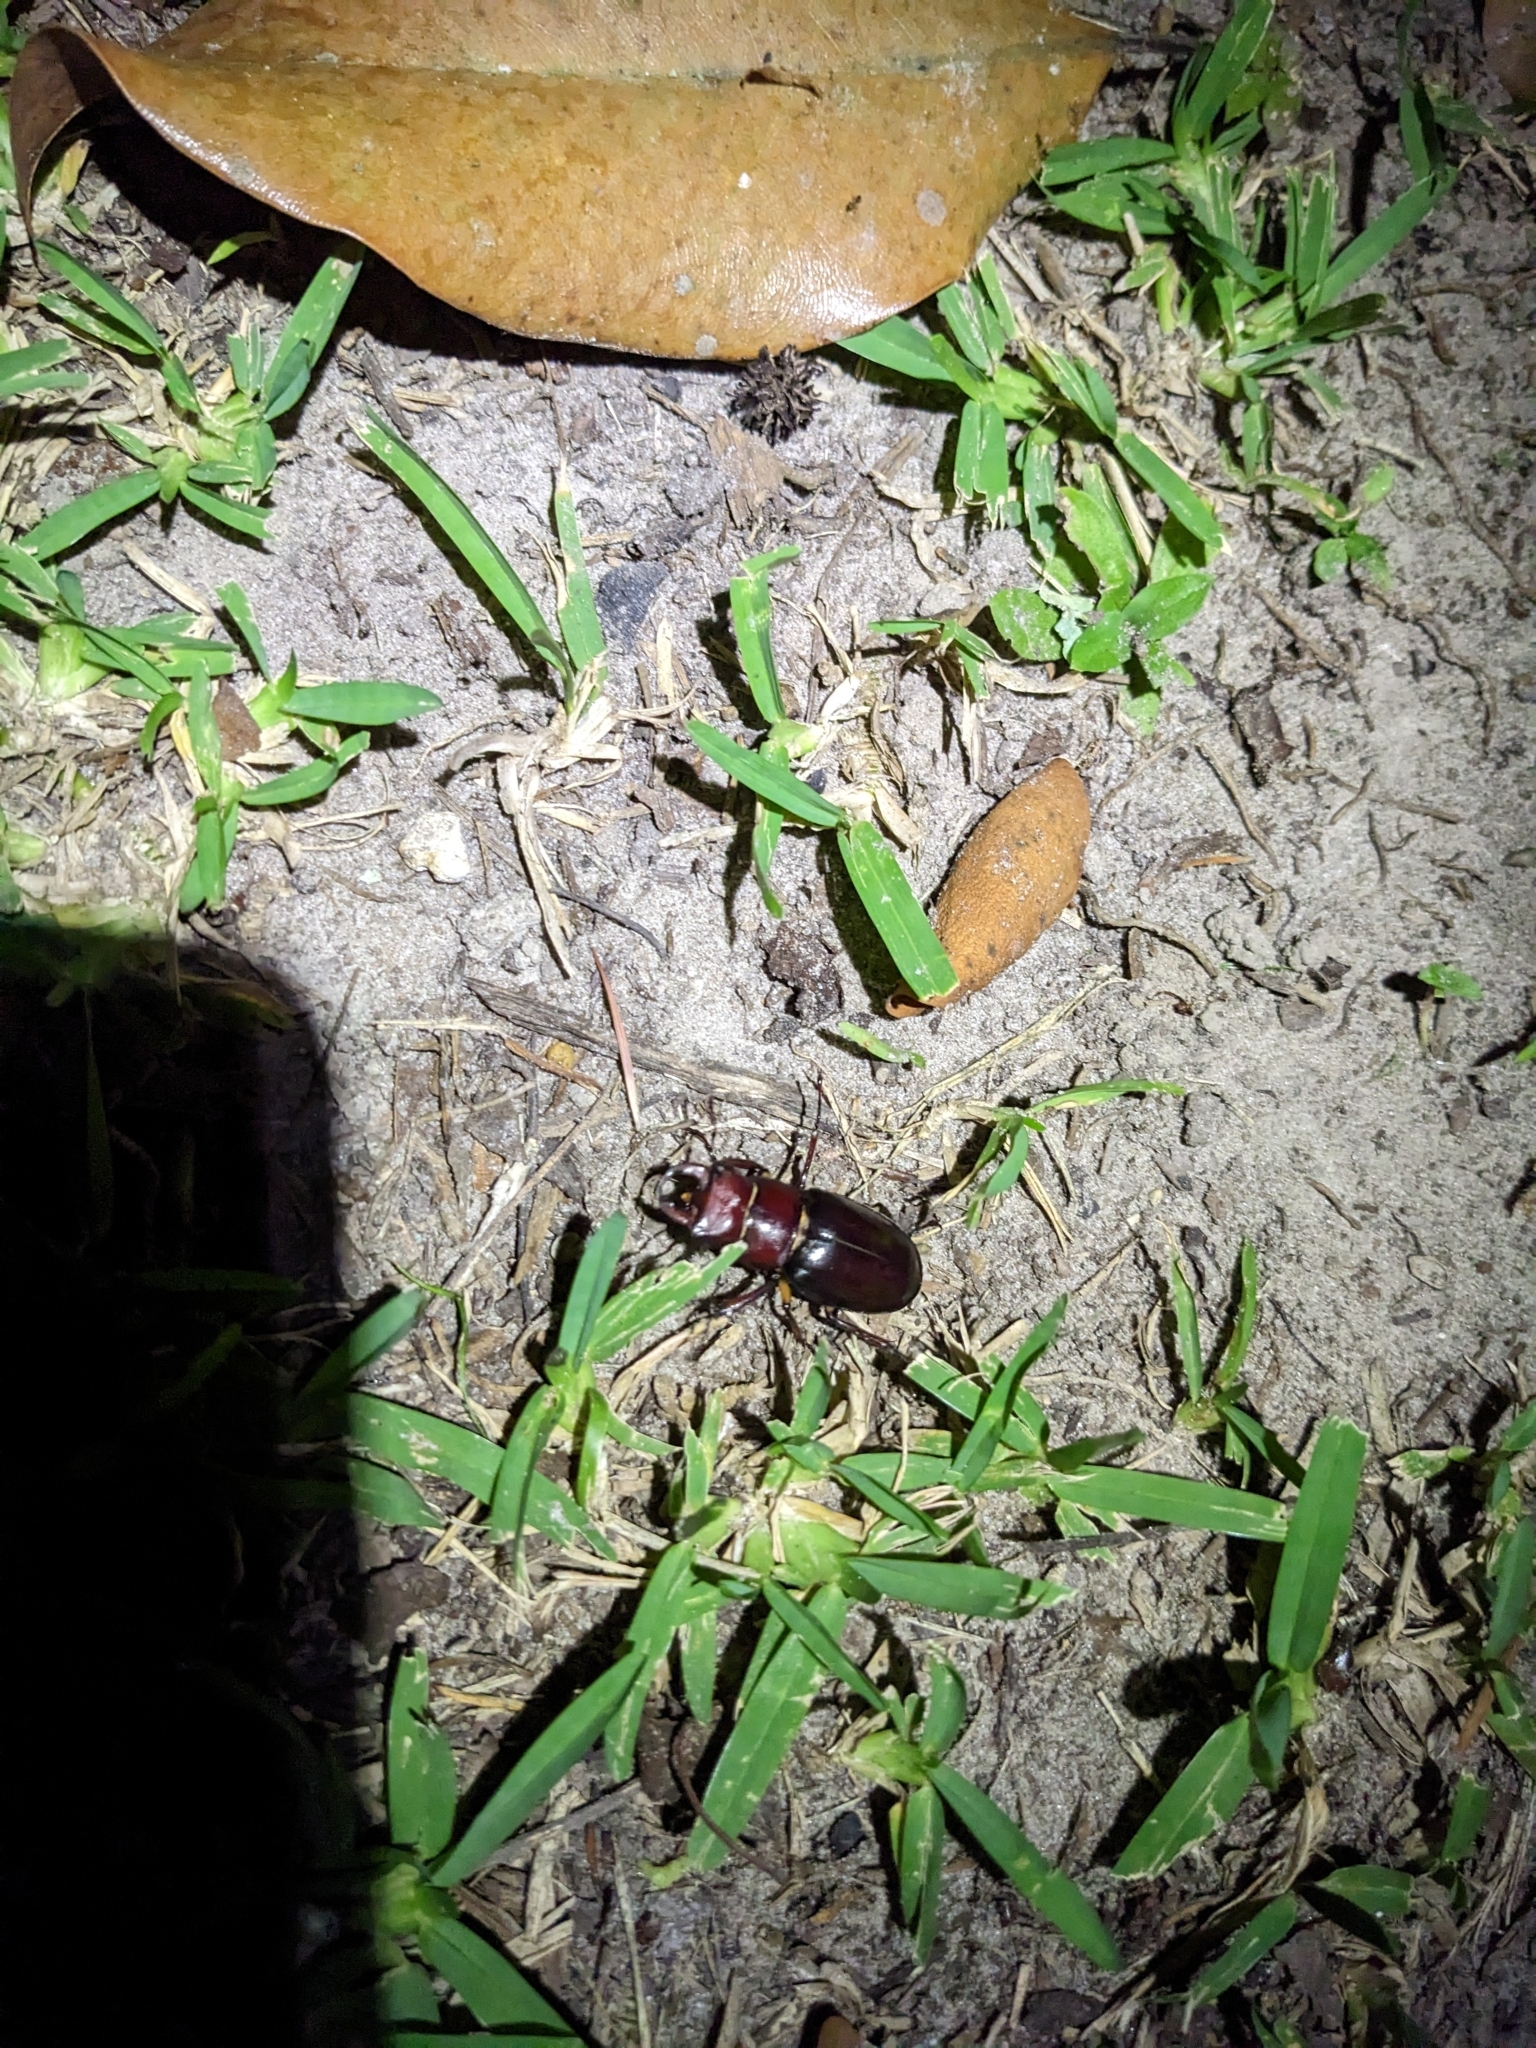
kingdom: Animalia
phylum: Arthropoda
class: Insecta
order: Coleoptera
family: Lucanidae
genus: Lucanus
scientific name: Lucanus capreolus
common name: Stag beetle
